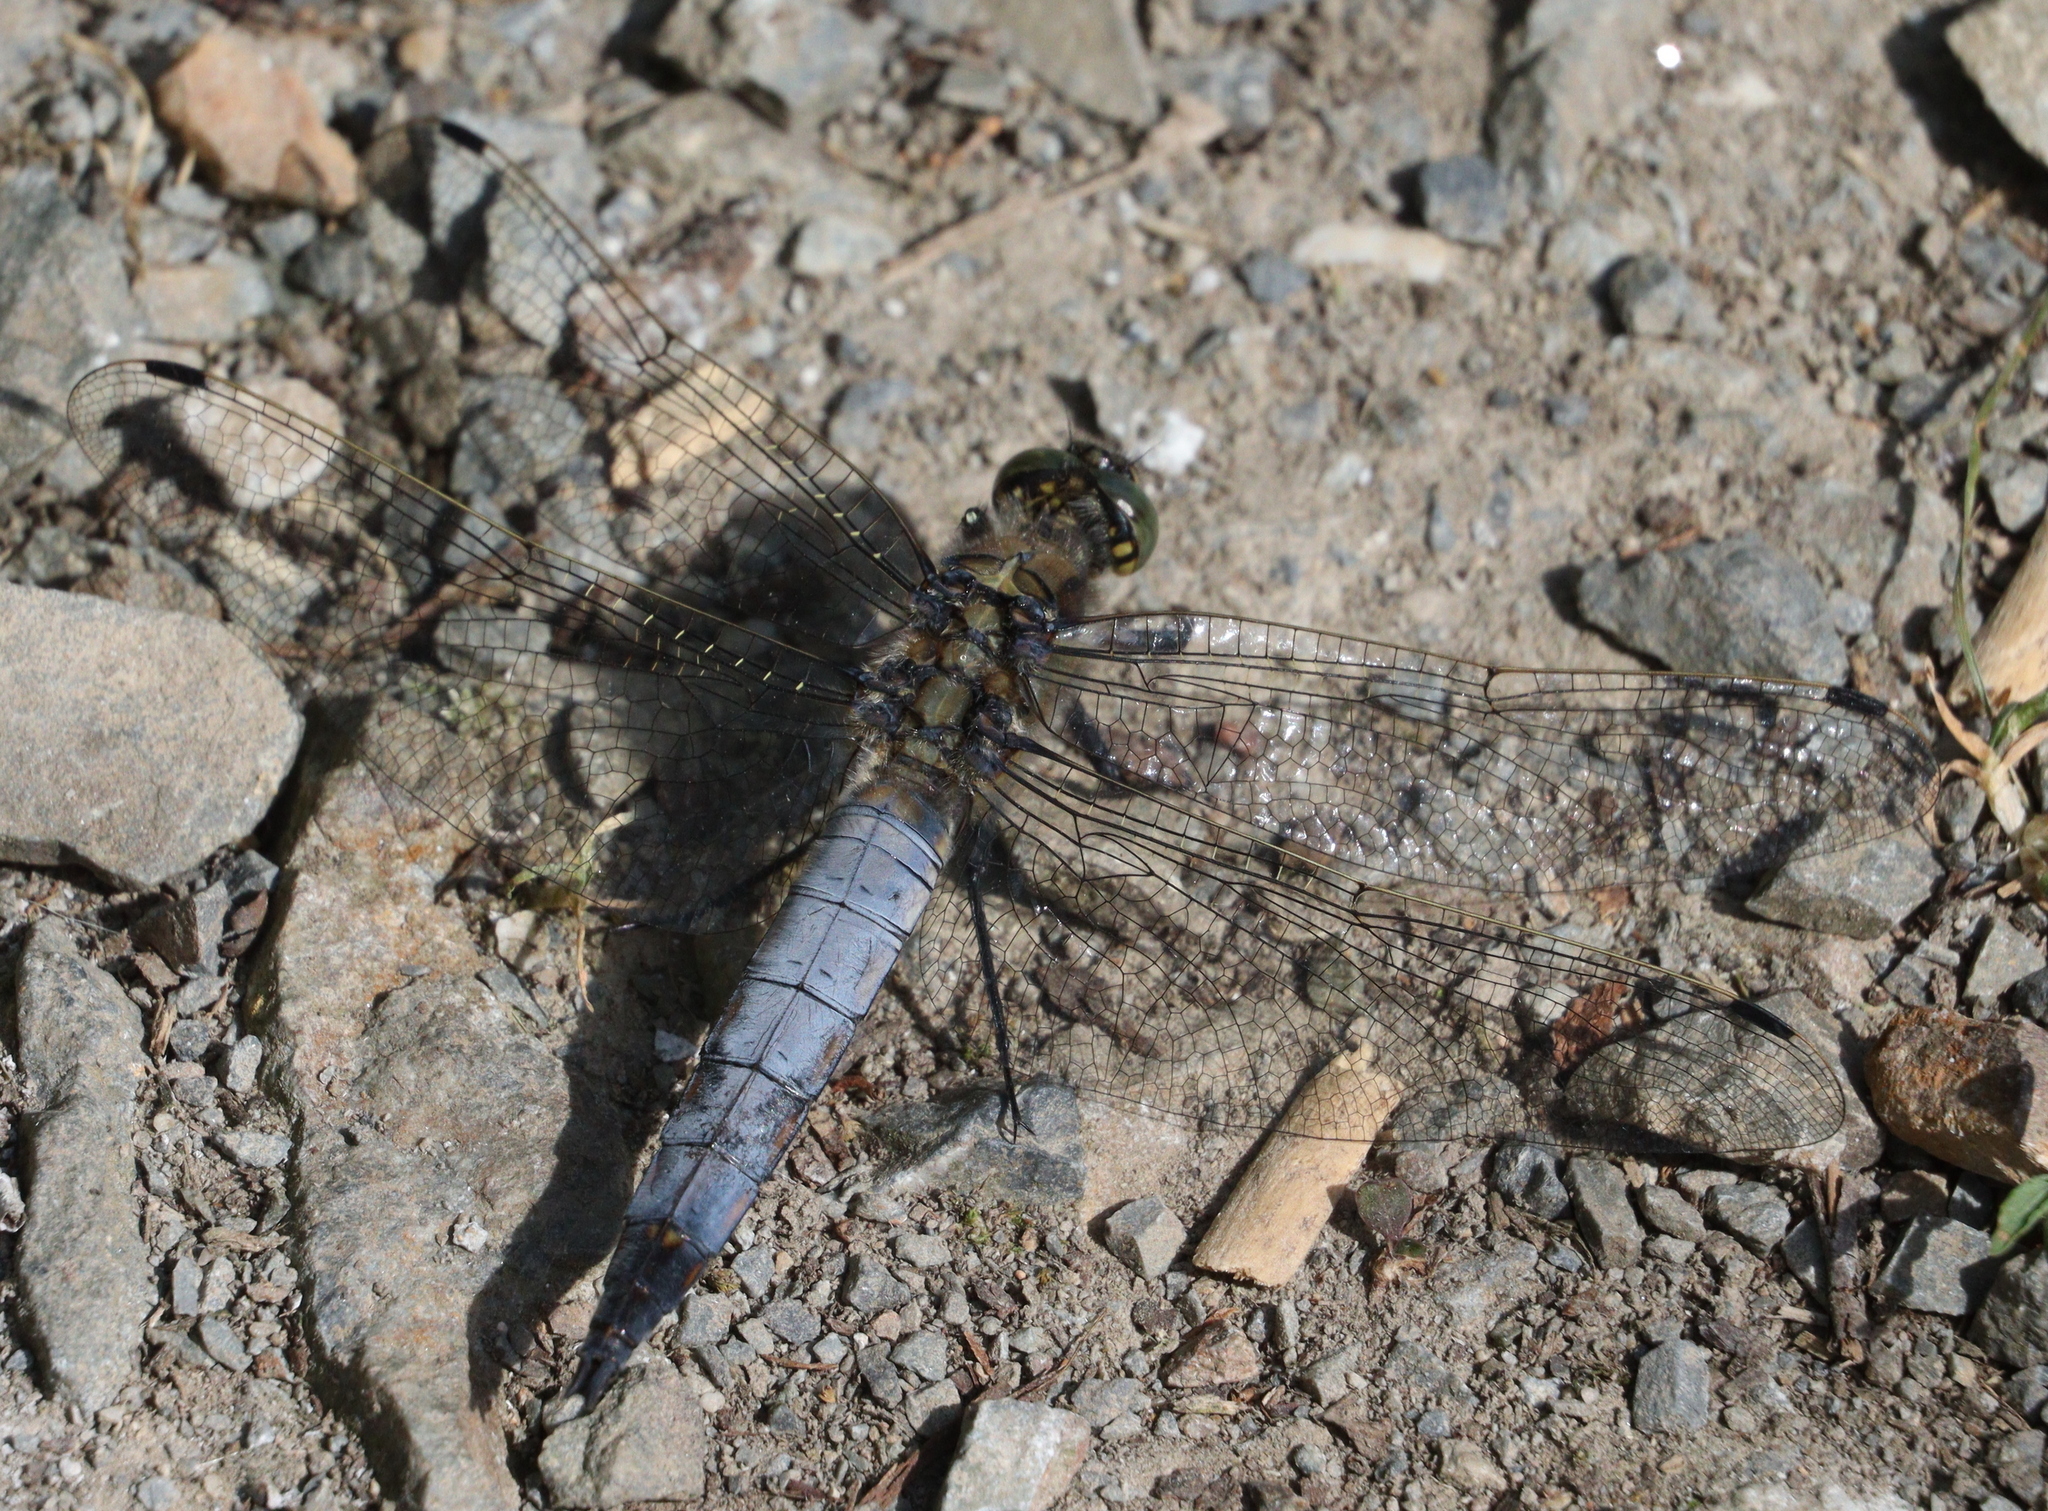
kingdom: Animalia
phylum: Arthropoda
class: Insecta
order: Odonata
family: Libellulidae
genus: Orthetrum
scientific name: Orthetrum cancellatum
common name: Black-tailed skimmer
